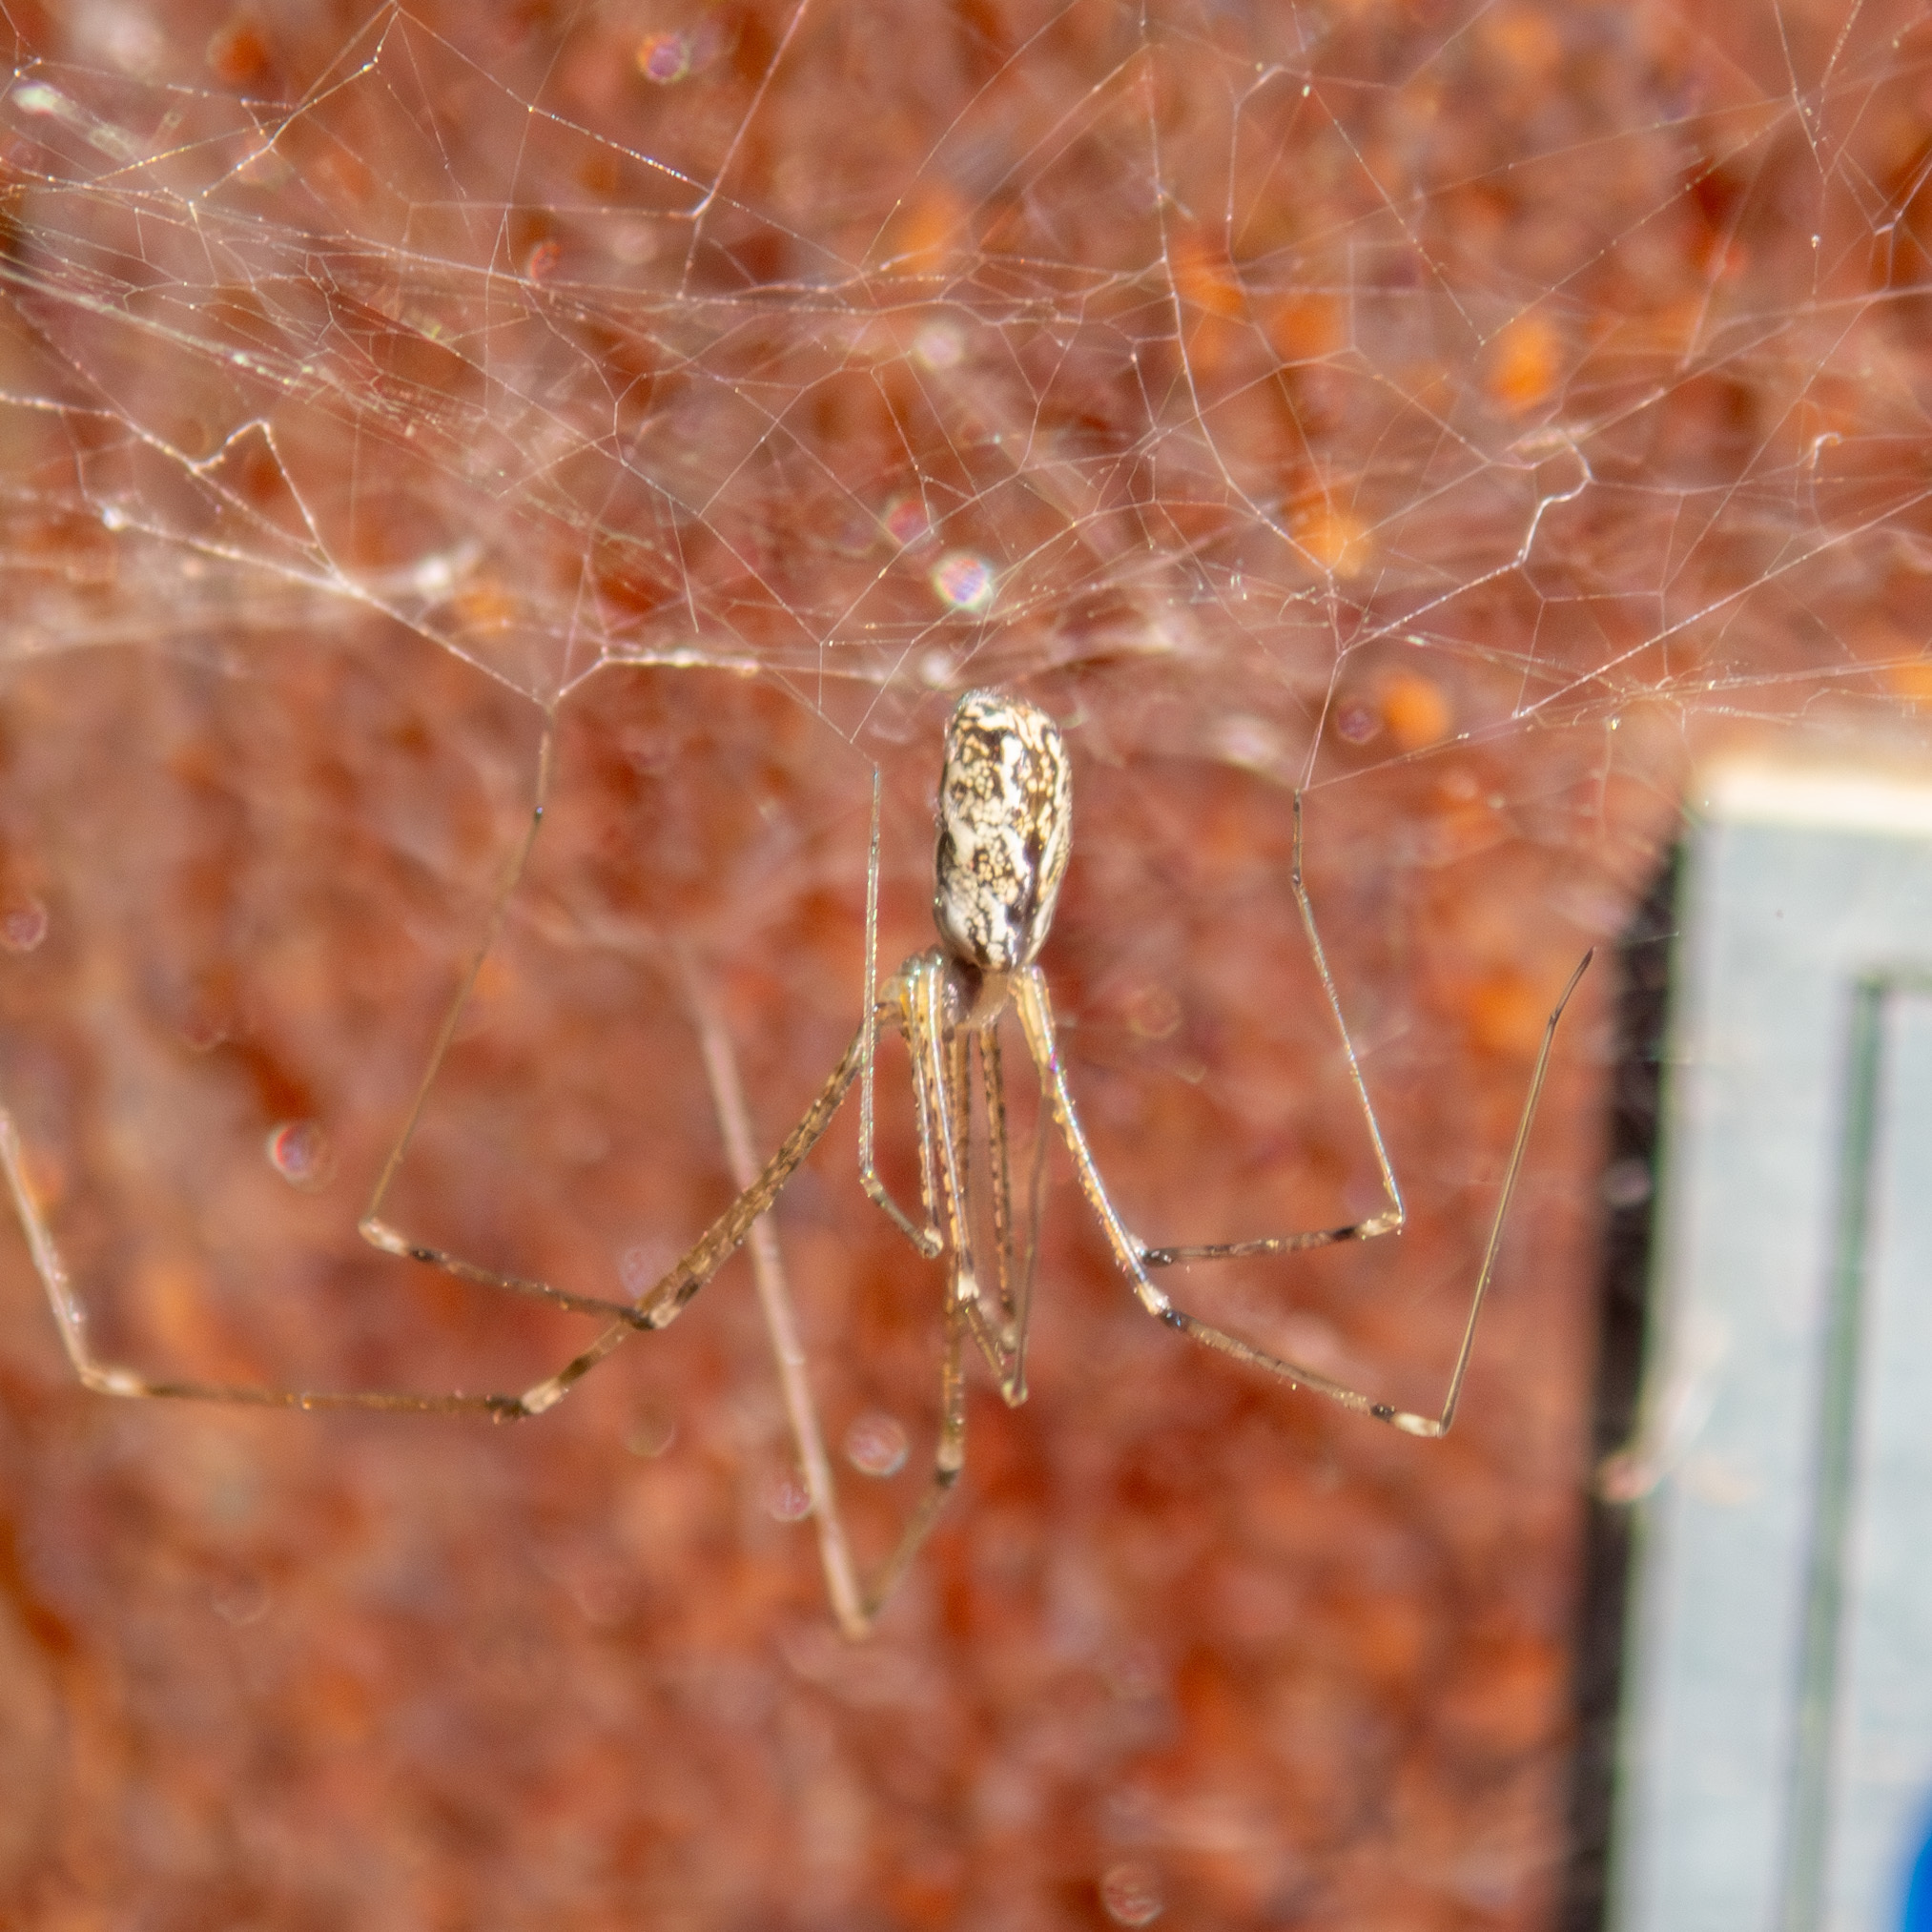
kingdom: Animalia
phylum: Arthropoda
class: Arachnida
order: Araneae
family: Pholcidae
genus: Holocnemus
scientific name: Holocnemus pluchei
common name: Marbled cellar spider
